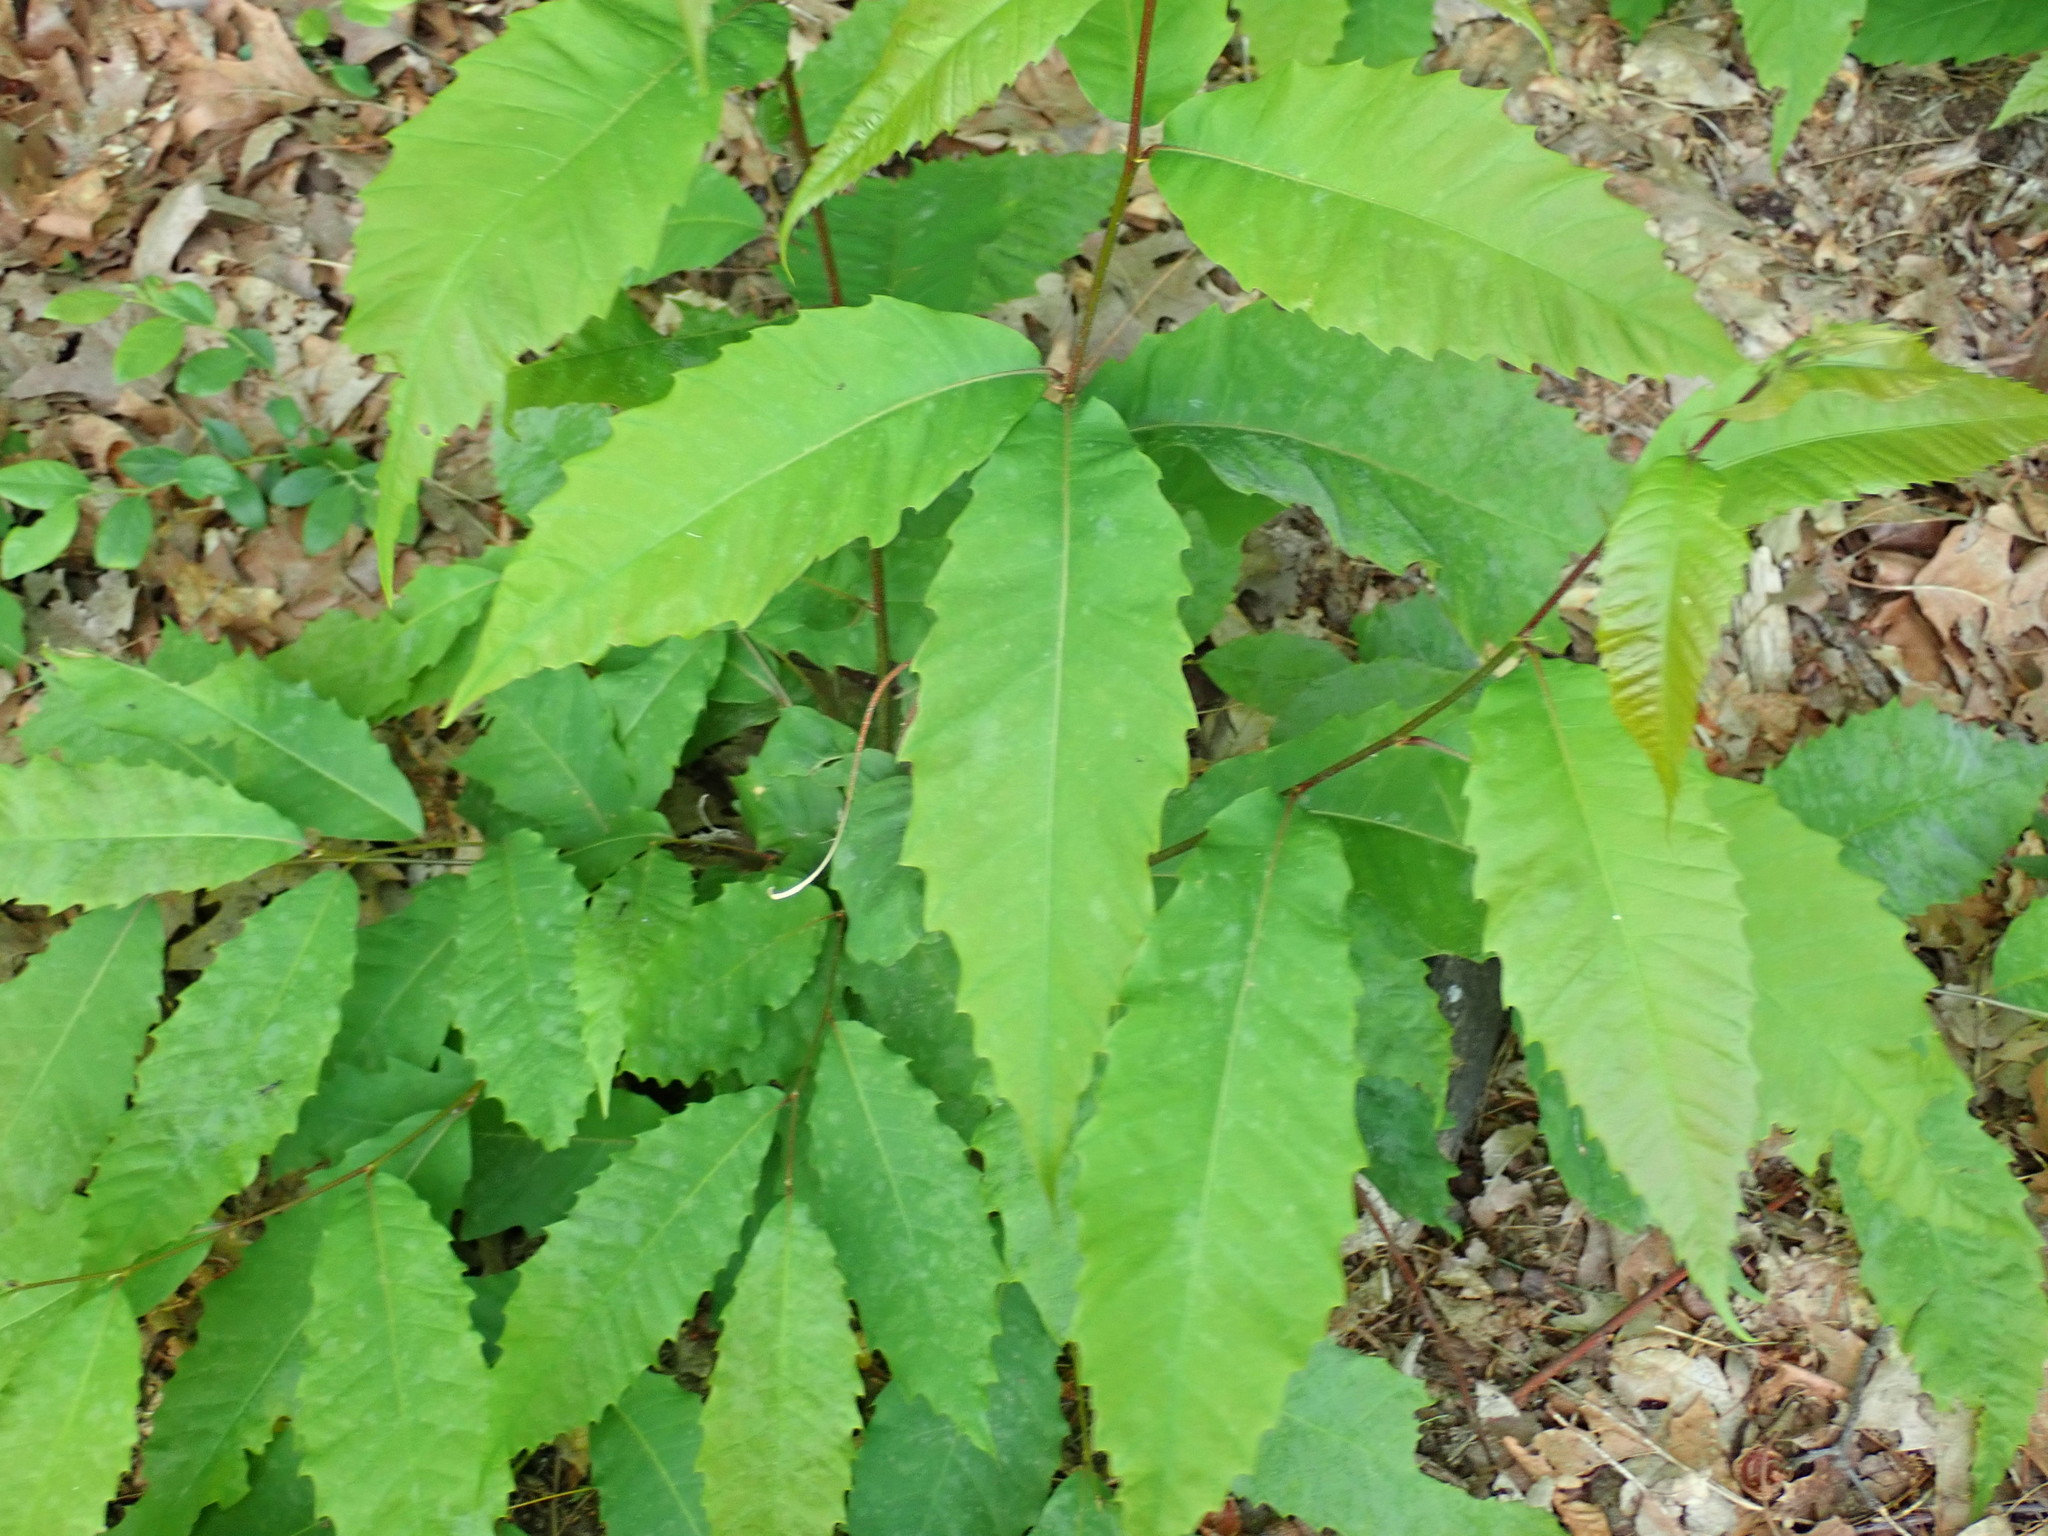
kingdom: Plantae
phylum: Tracheophyta
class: Magnoliopsida
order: Fagales
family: Fagaceae
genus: Castanea
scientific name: Castanea dentata
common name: American chestnut
